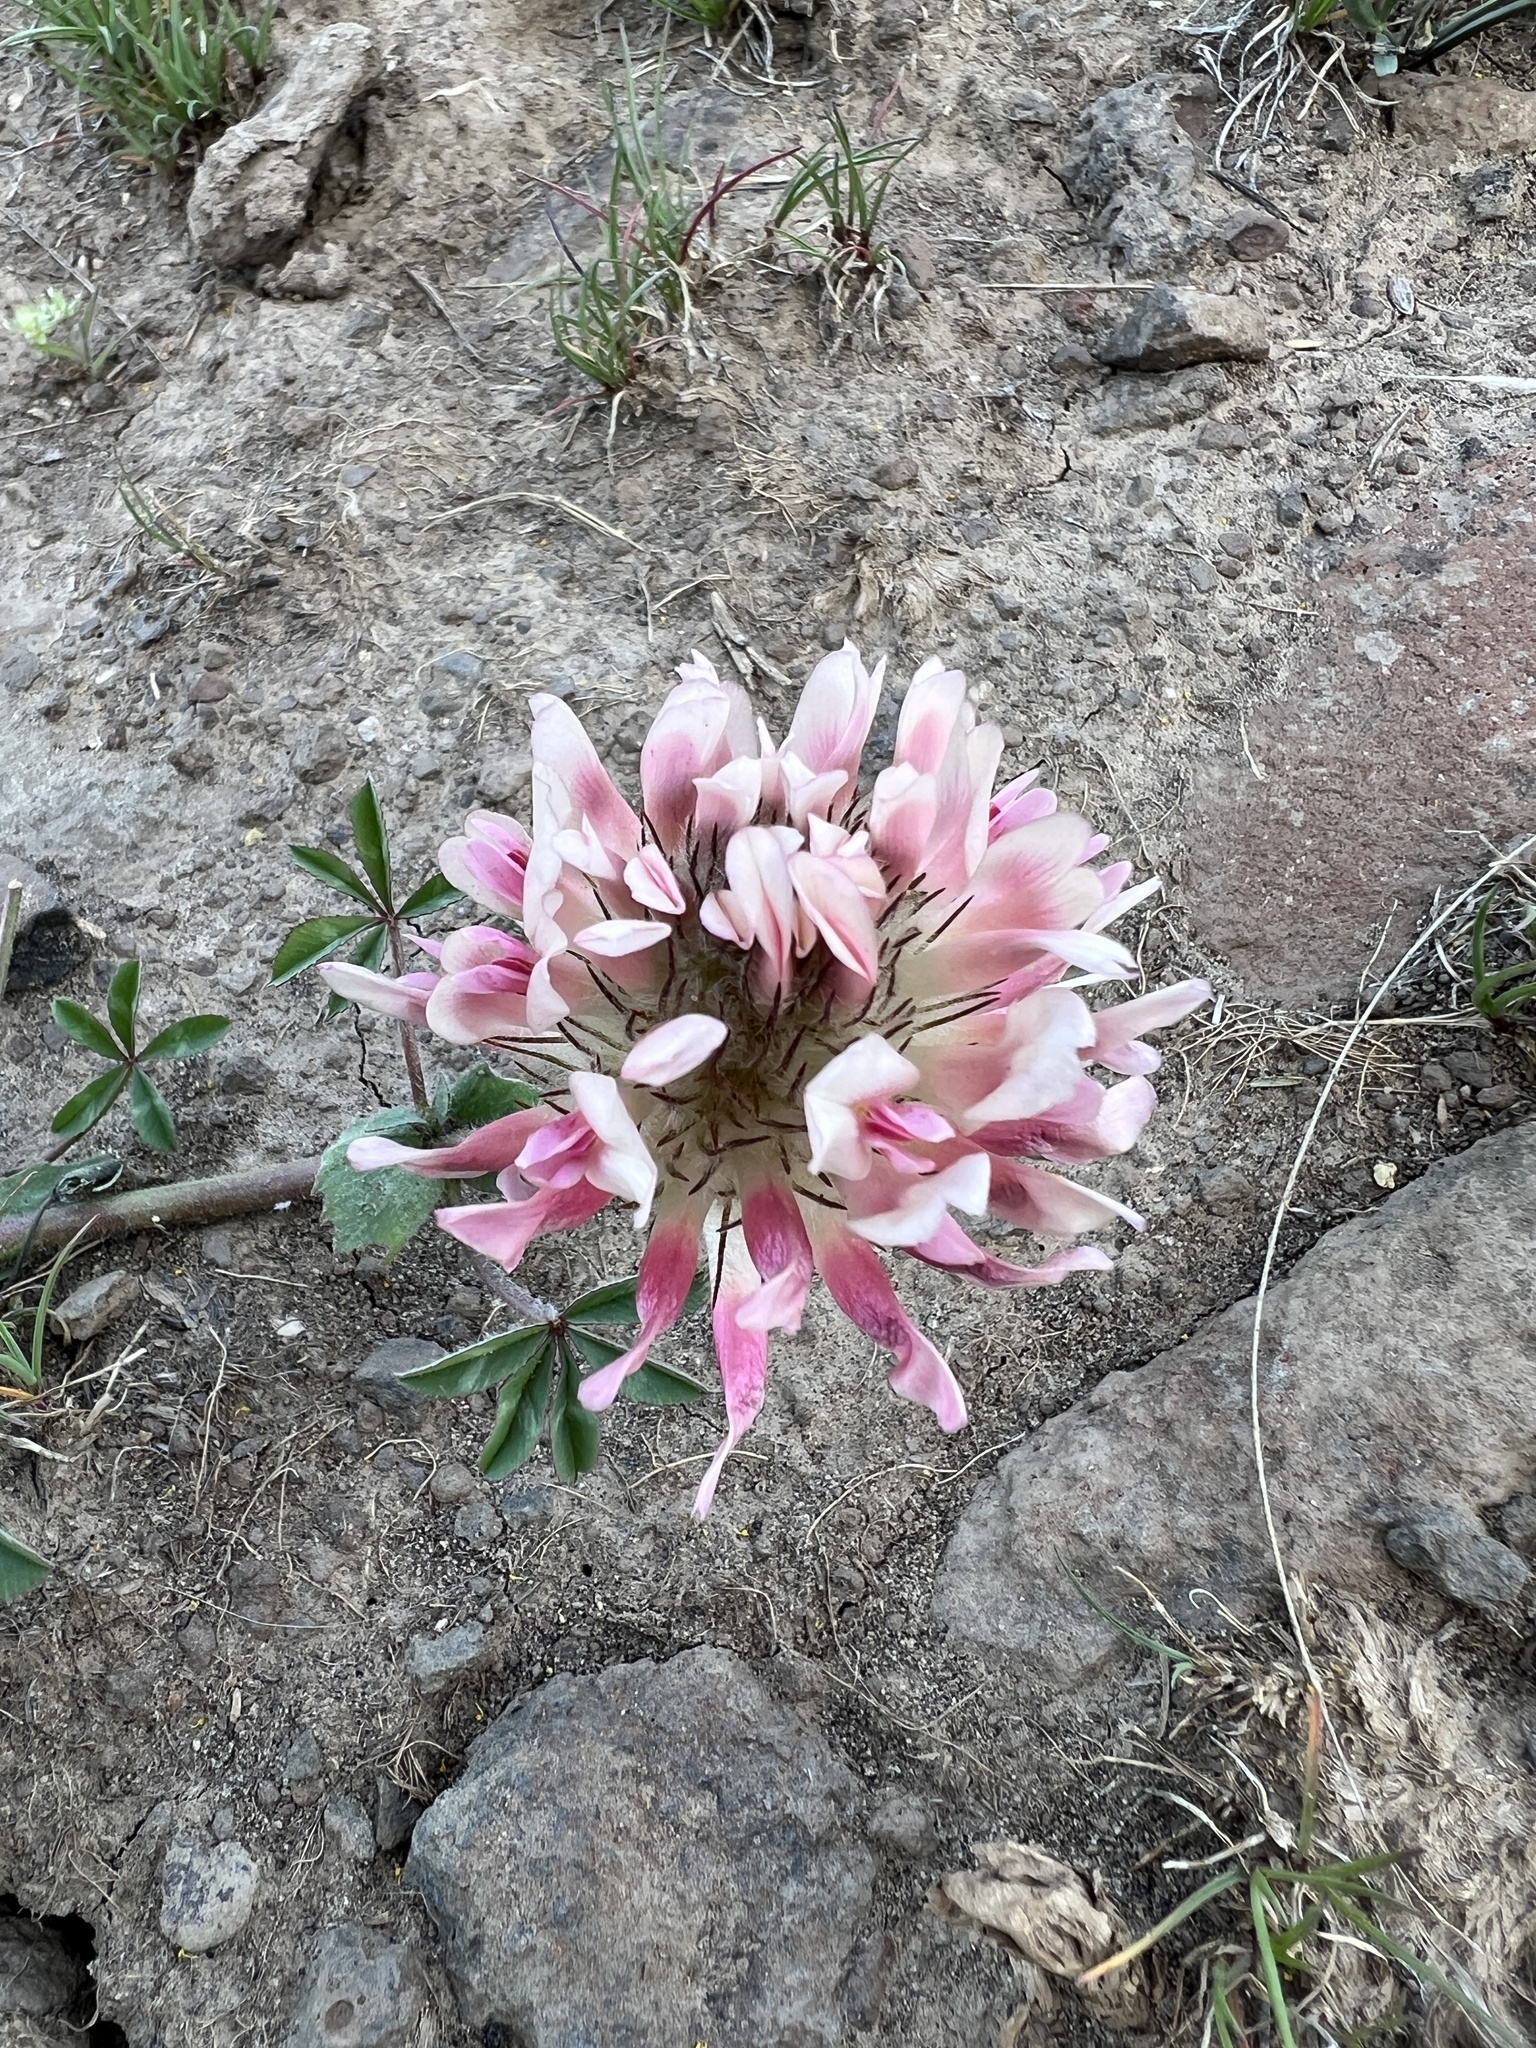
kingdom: Plantae
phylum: Tracheophyta
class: Magnoliopsida
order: Fabales
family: Fabaceae
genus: Trifolium
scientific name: Trifolium macrocephalum
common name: Large-head clover
